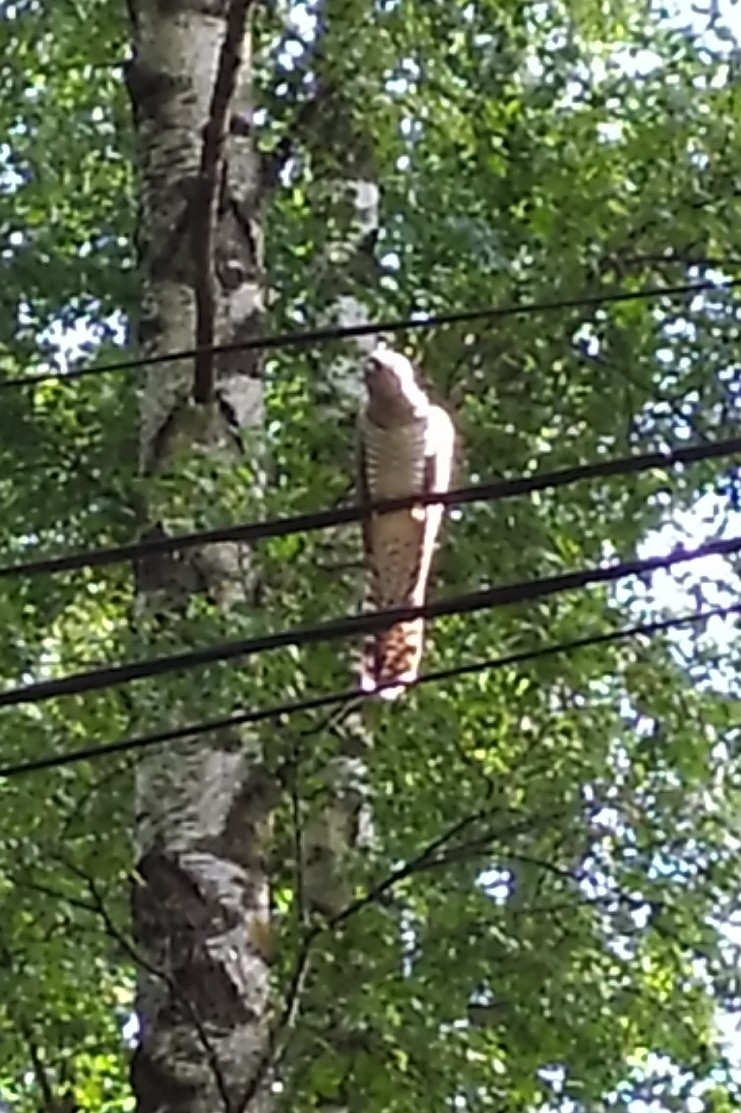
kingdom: Animalia
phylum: Chordata
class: Aves
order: Cuculiformes
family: Cuculidae
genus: Cuculus
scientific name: Cuculus canorus
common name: Common cuckoo
